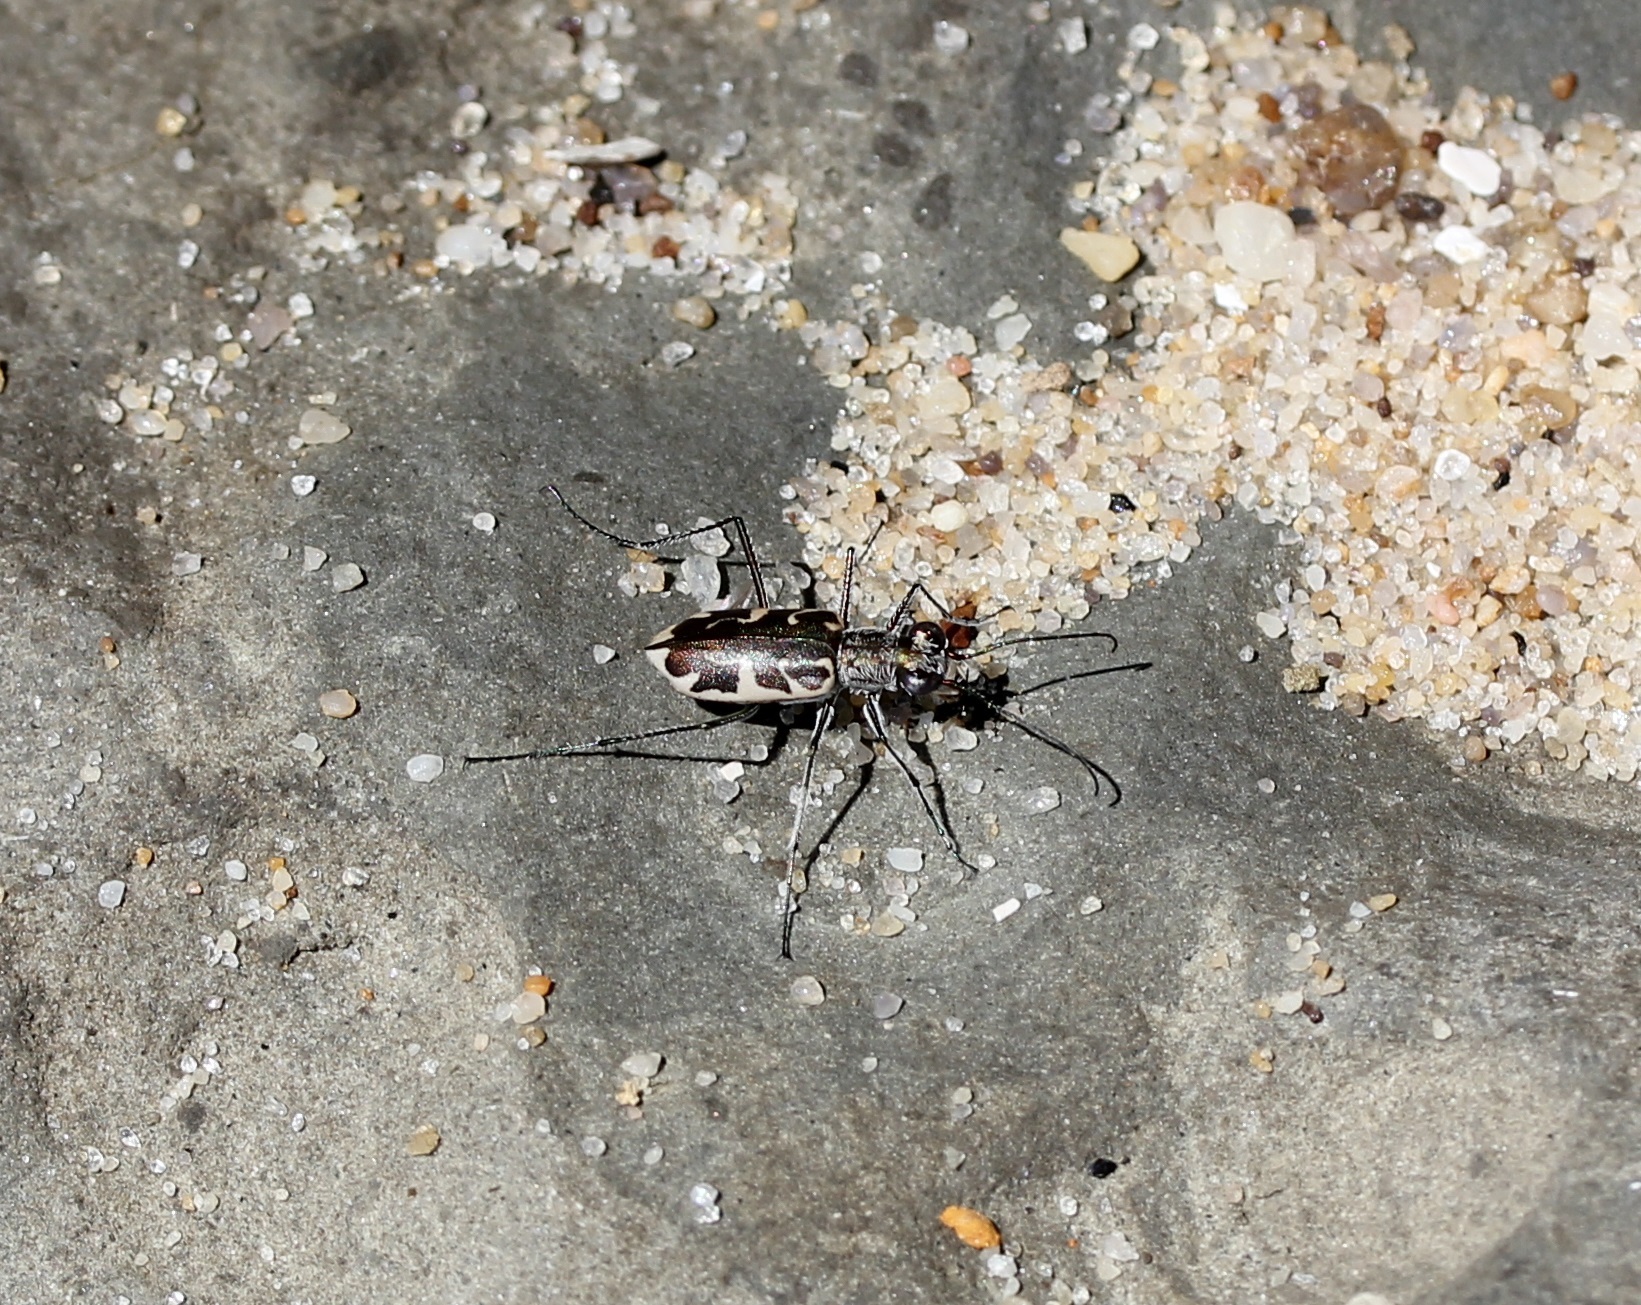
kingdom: Animalia
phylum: Arthropoda
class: Insecta
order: Coleoptera
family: Carabidae
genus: Ellipsoptera
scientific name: Ellipsoptera puritana
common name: Puritan tiger beetle
